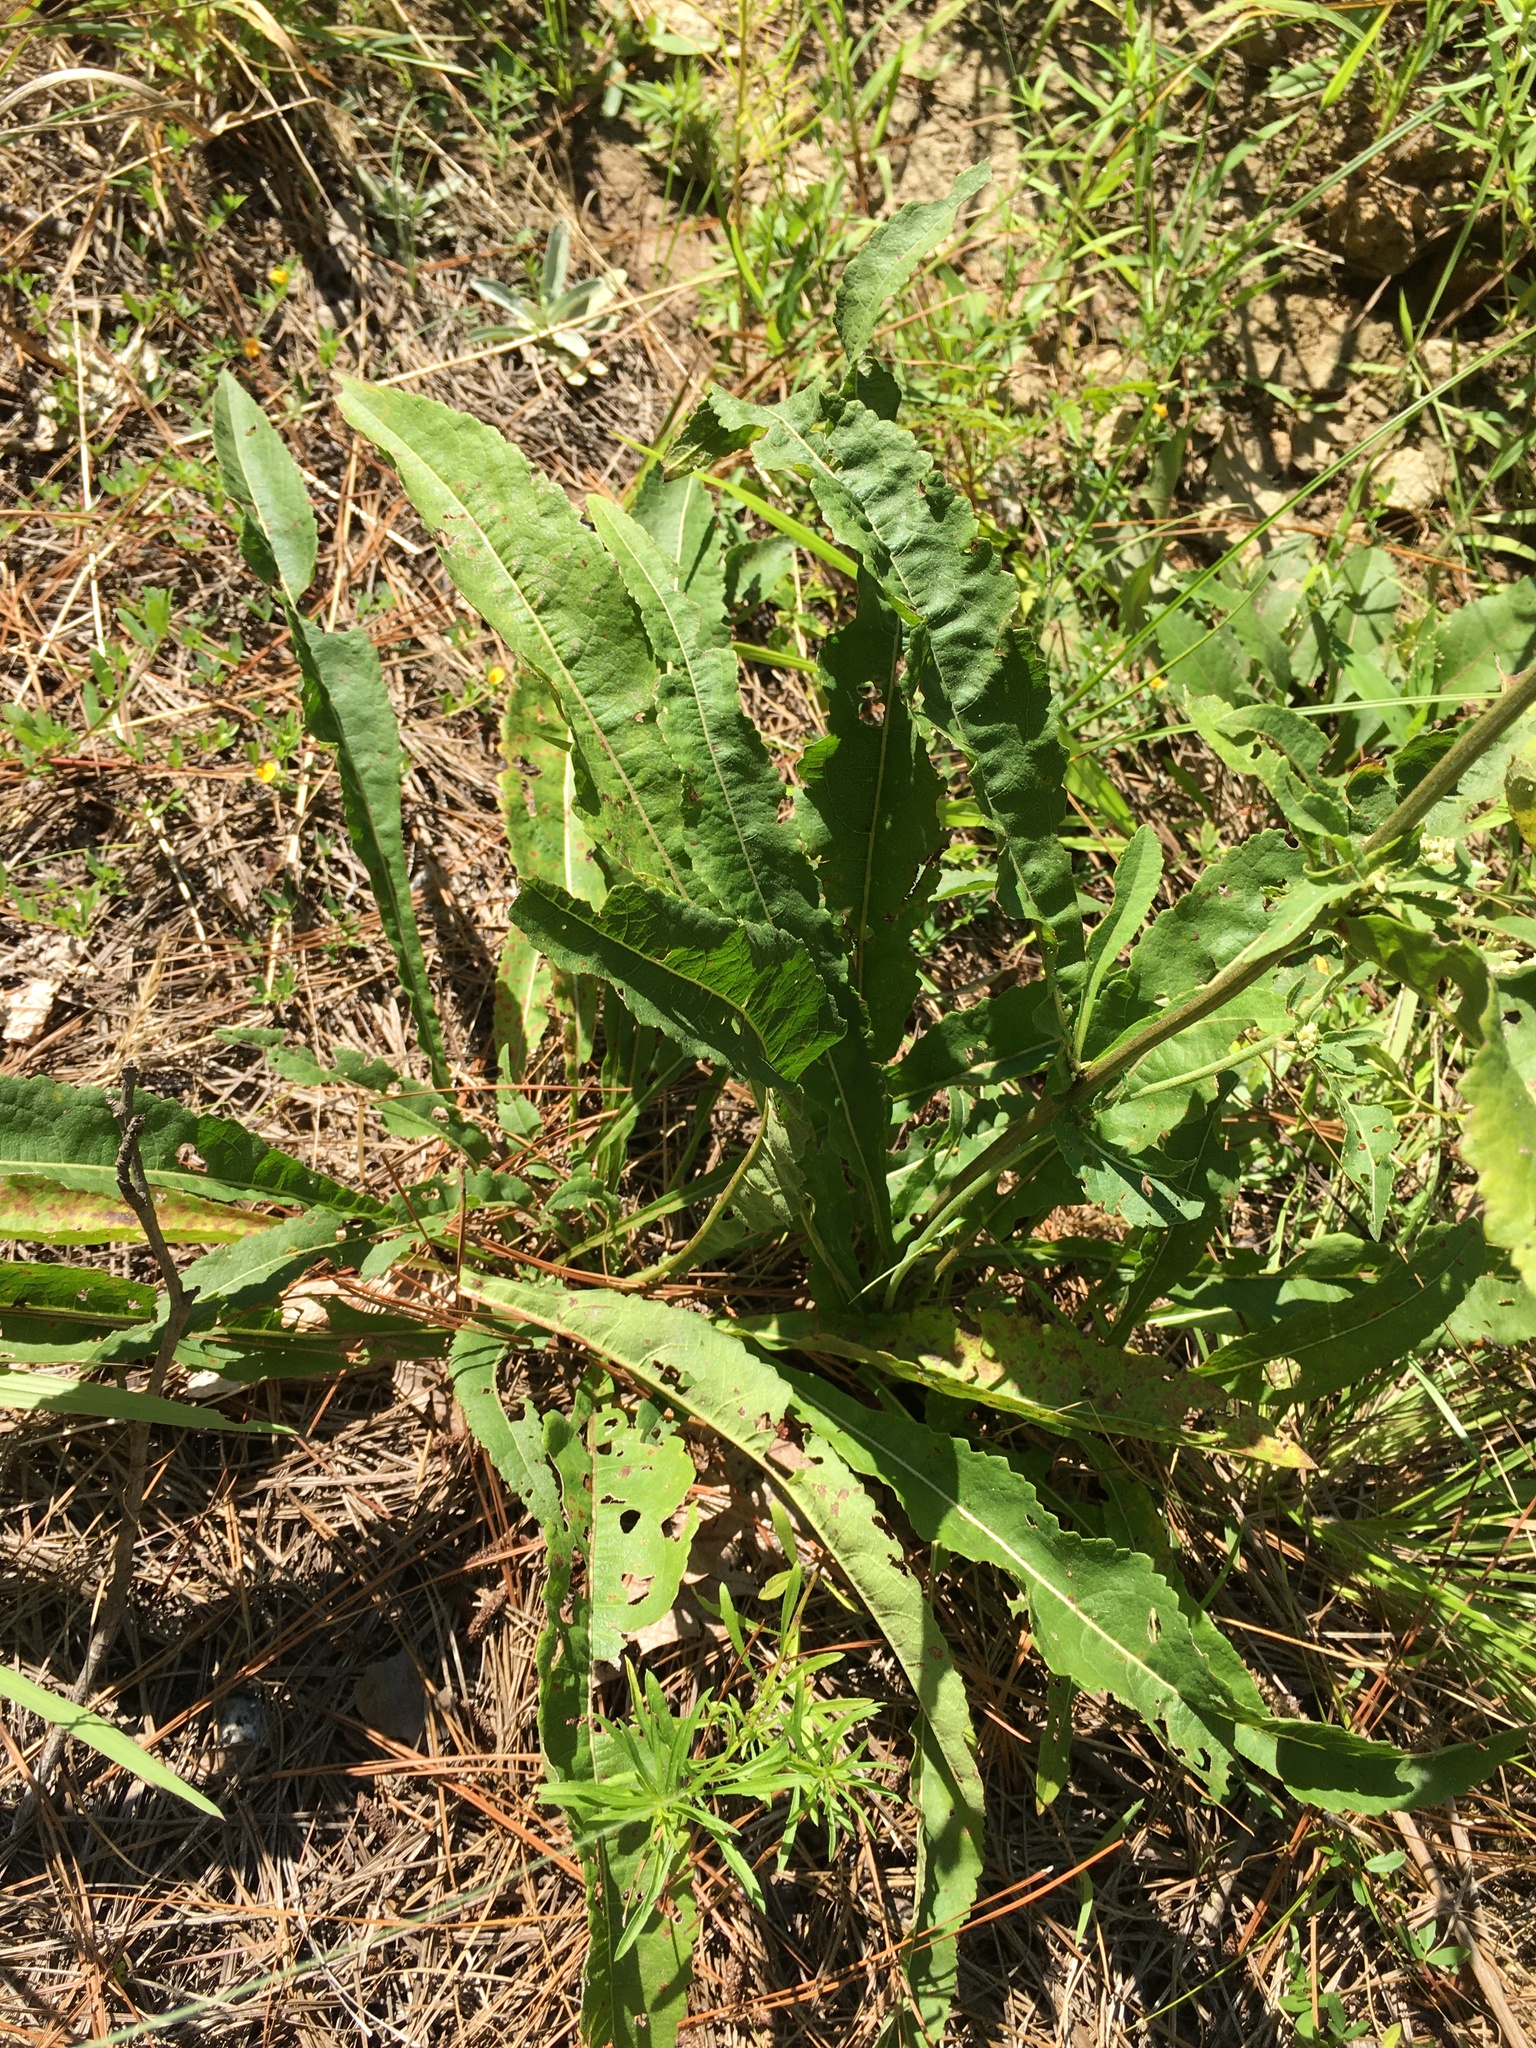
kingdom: Plantae
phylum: Tracheophyta
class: Magnoliopsida
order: Asterales
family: Asteraceae
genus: Parthenium
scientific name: Parthenium integrifolium
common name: American feverfew
